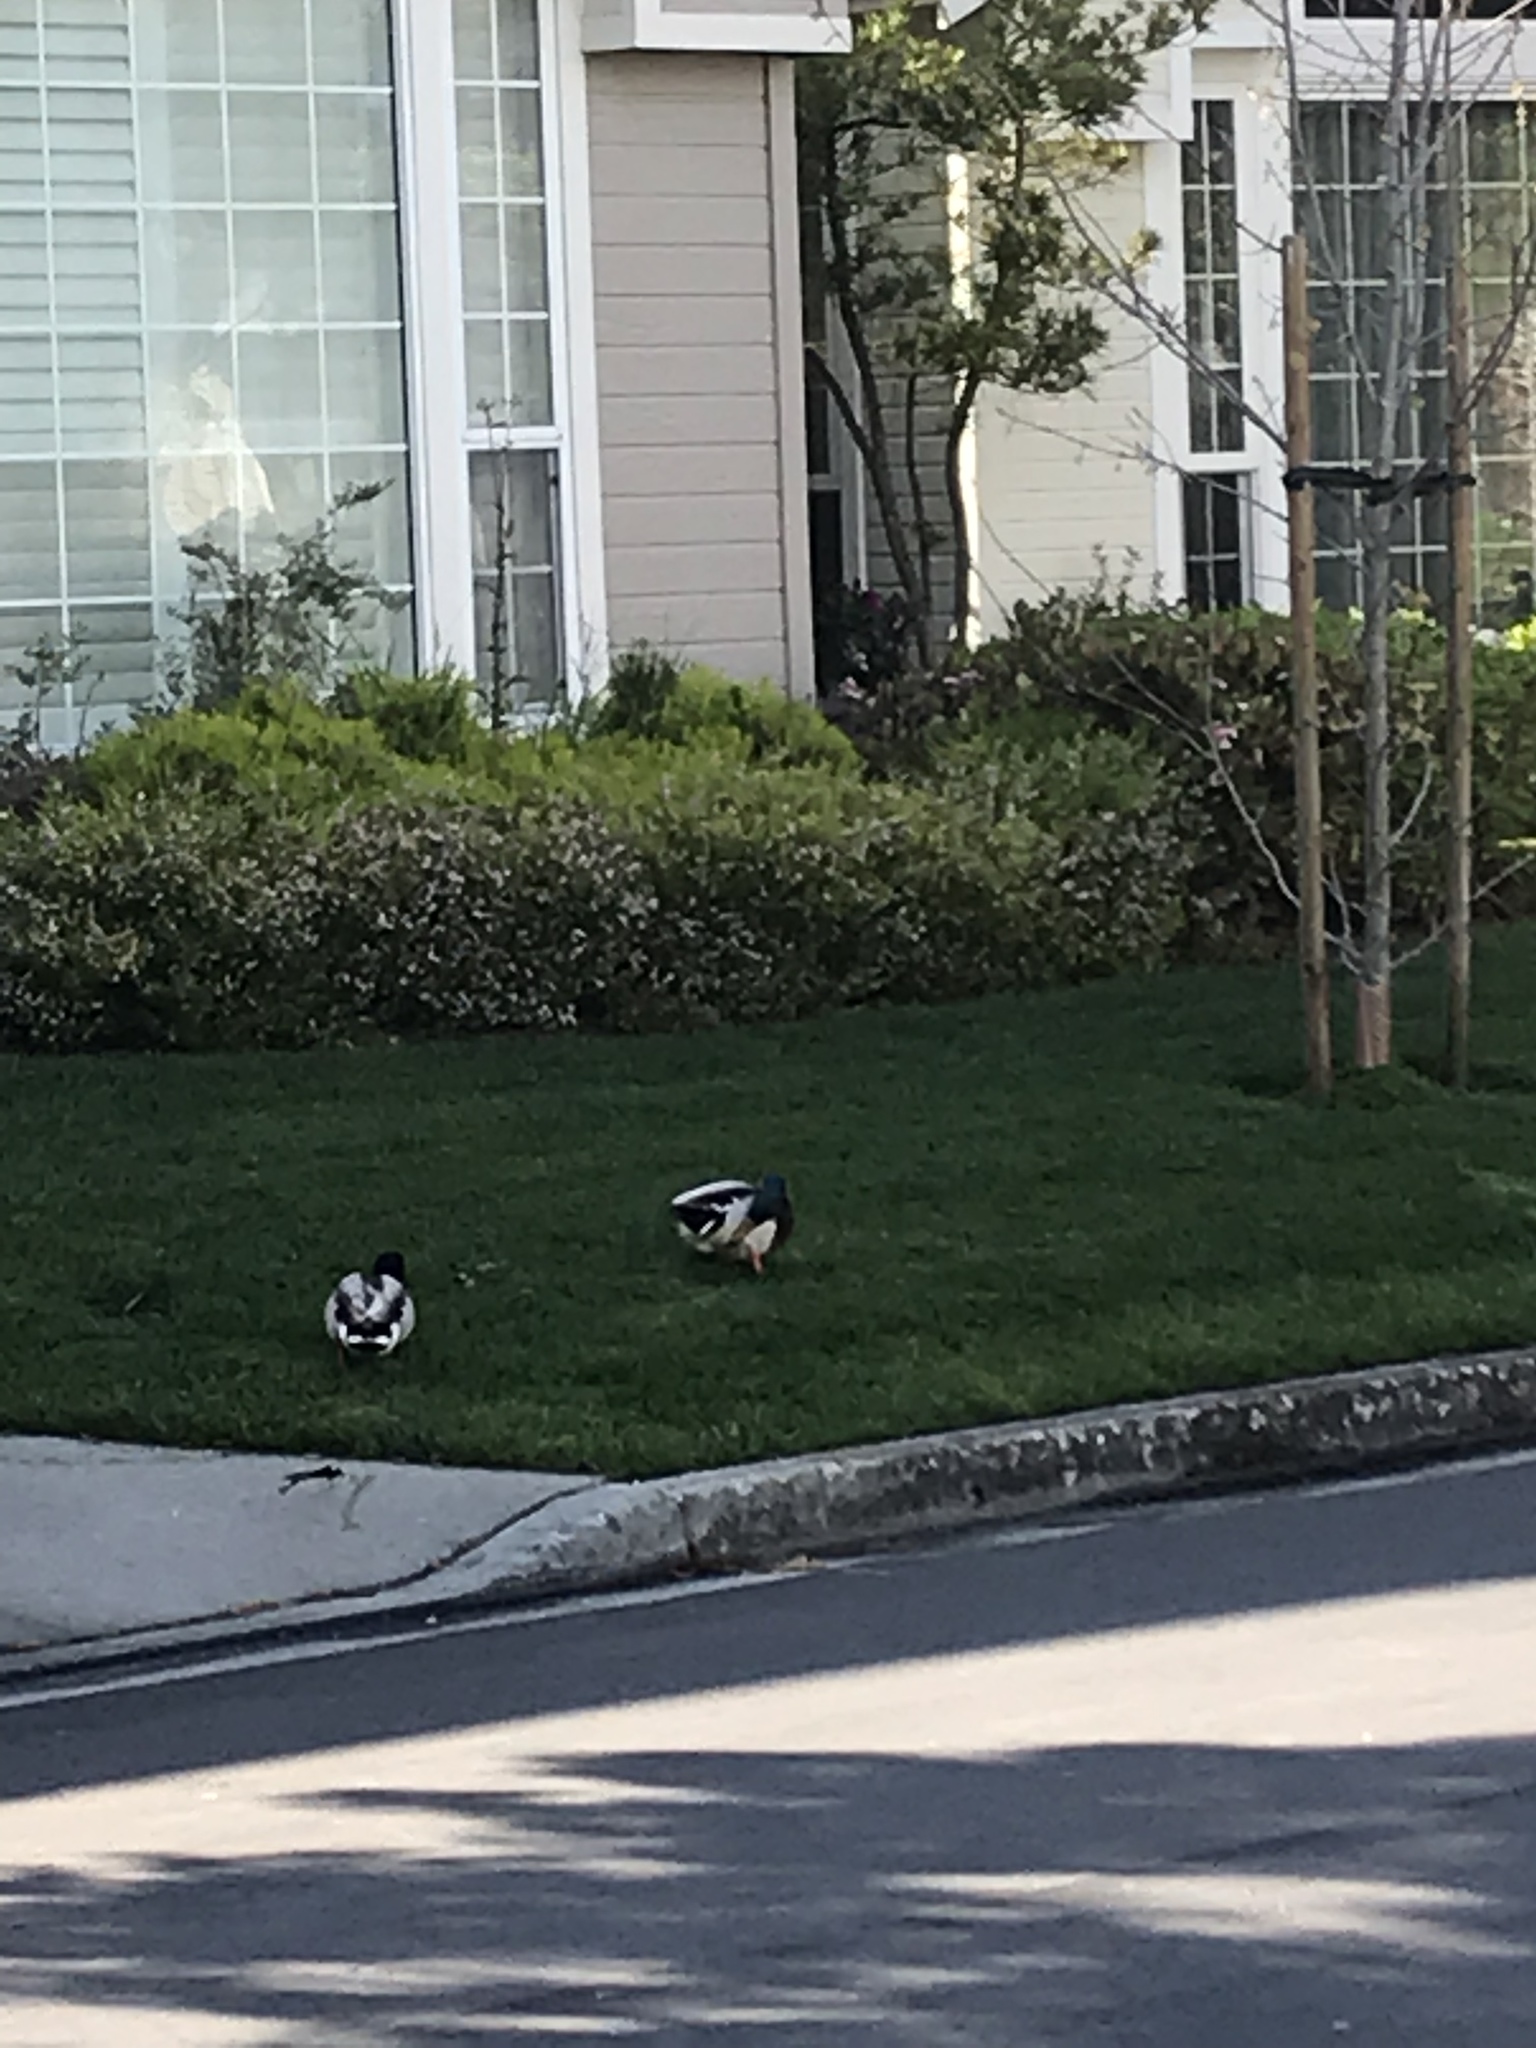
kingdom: Animalia
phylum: Chordata
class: Aves
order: Anseriformes
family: Anatidae
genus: Anas
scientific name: Anas platyrhynchos
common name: Mallard
